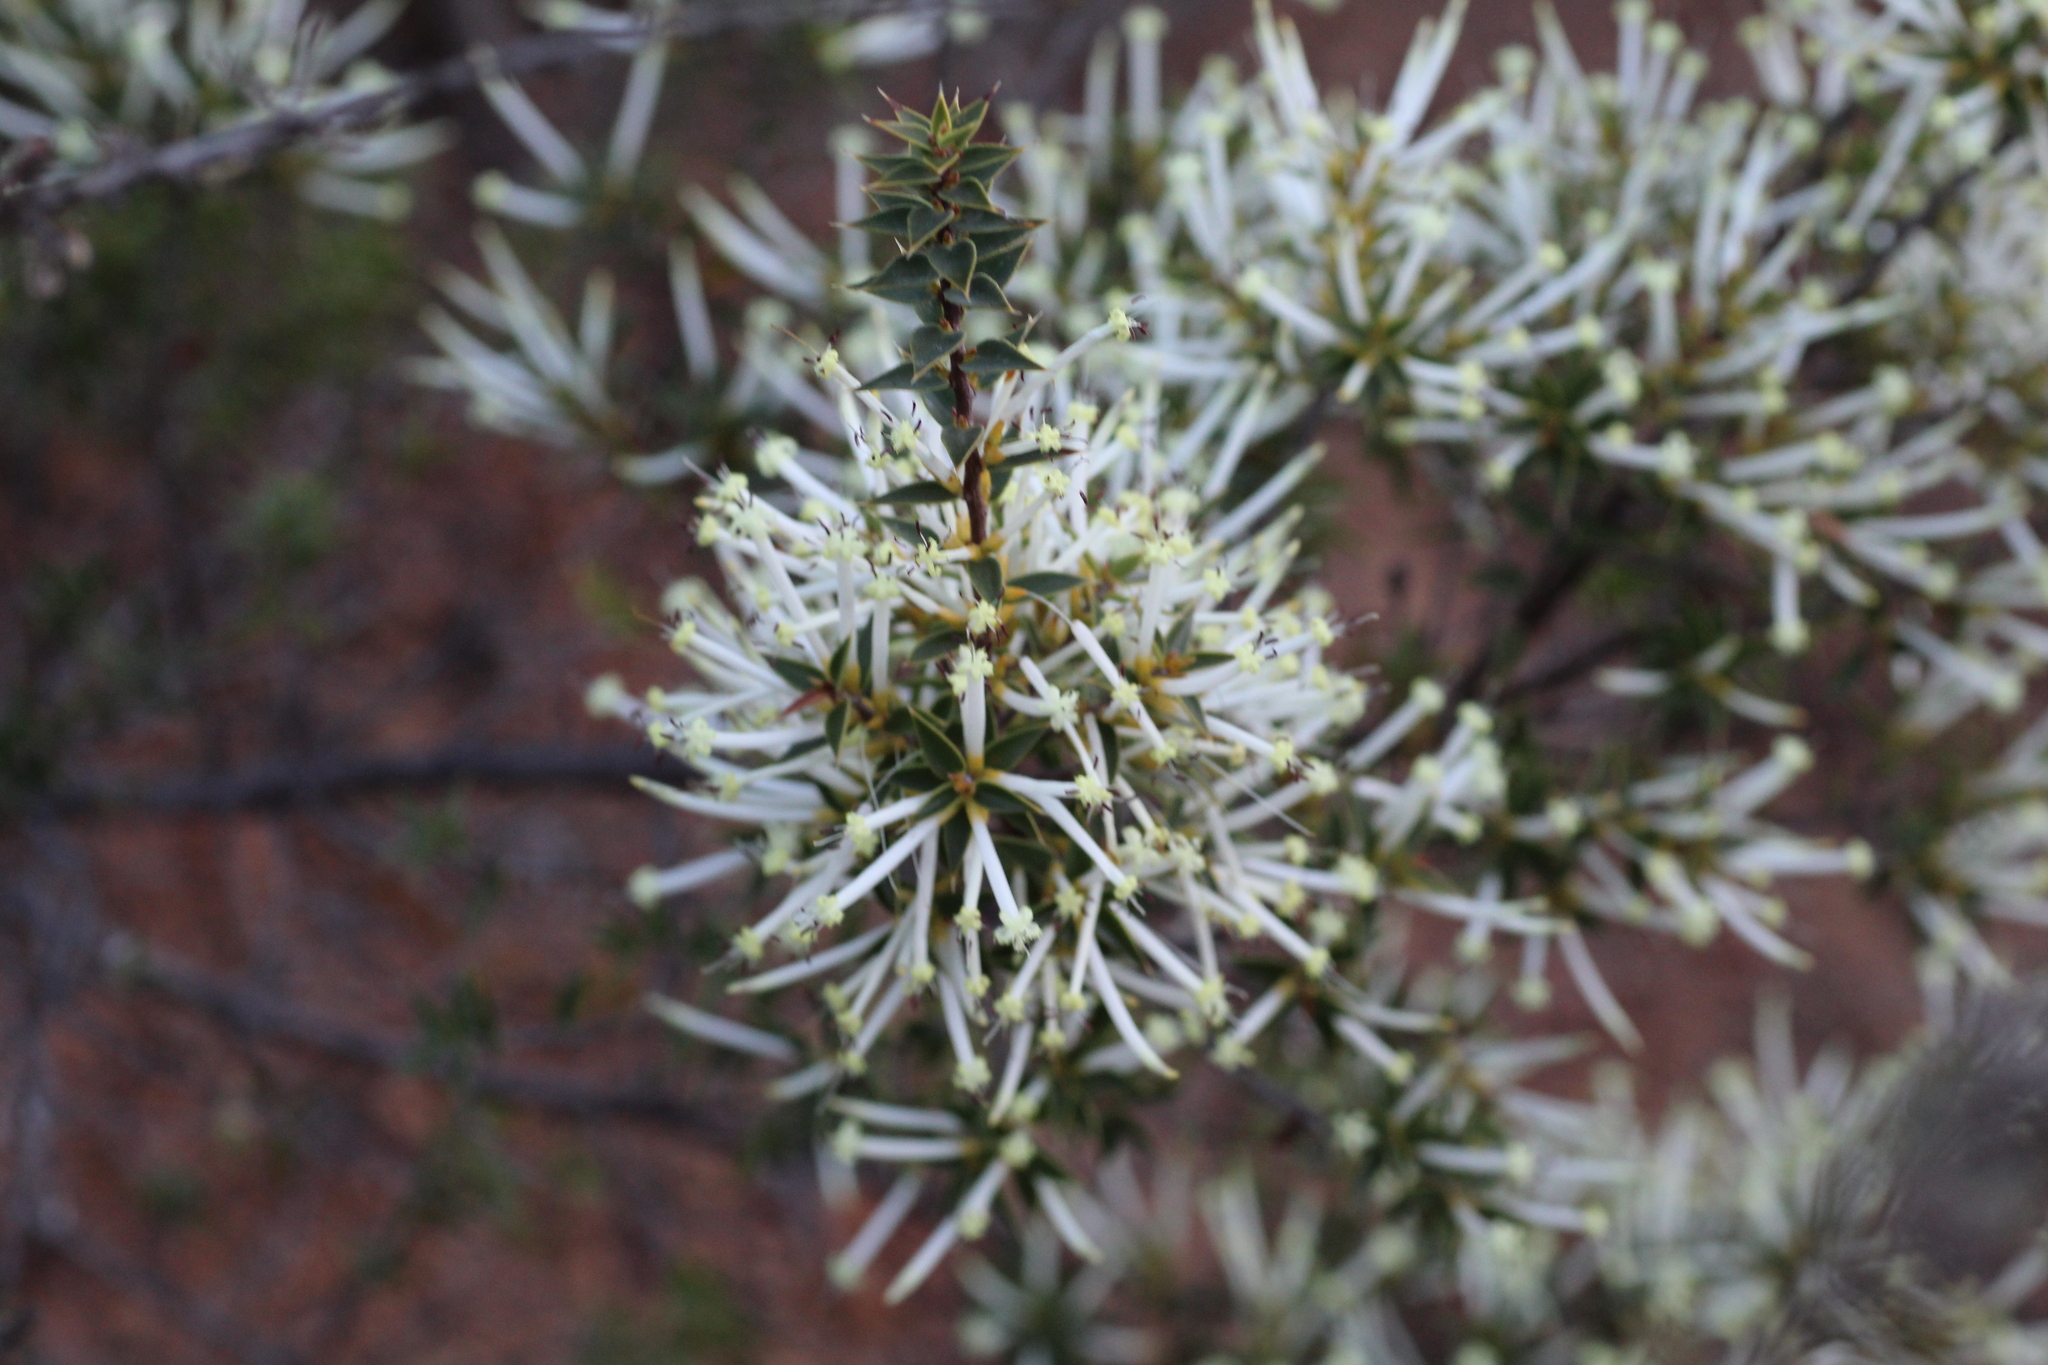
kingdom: Plantae
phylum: Tracheophyta
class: Magnoliopsida
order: Ericales
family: Ericaceae
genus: Styphelia
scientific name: Styphelia tenuiflora
